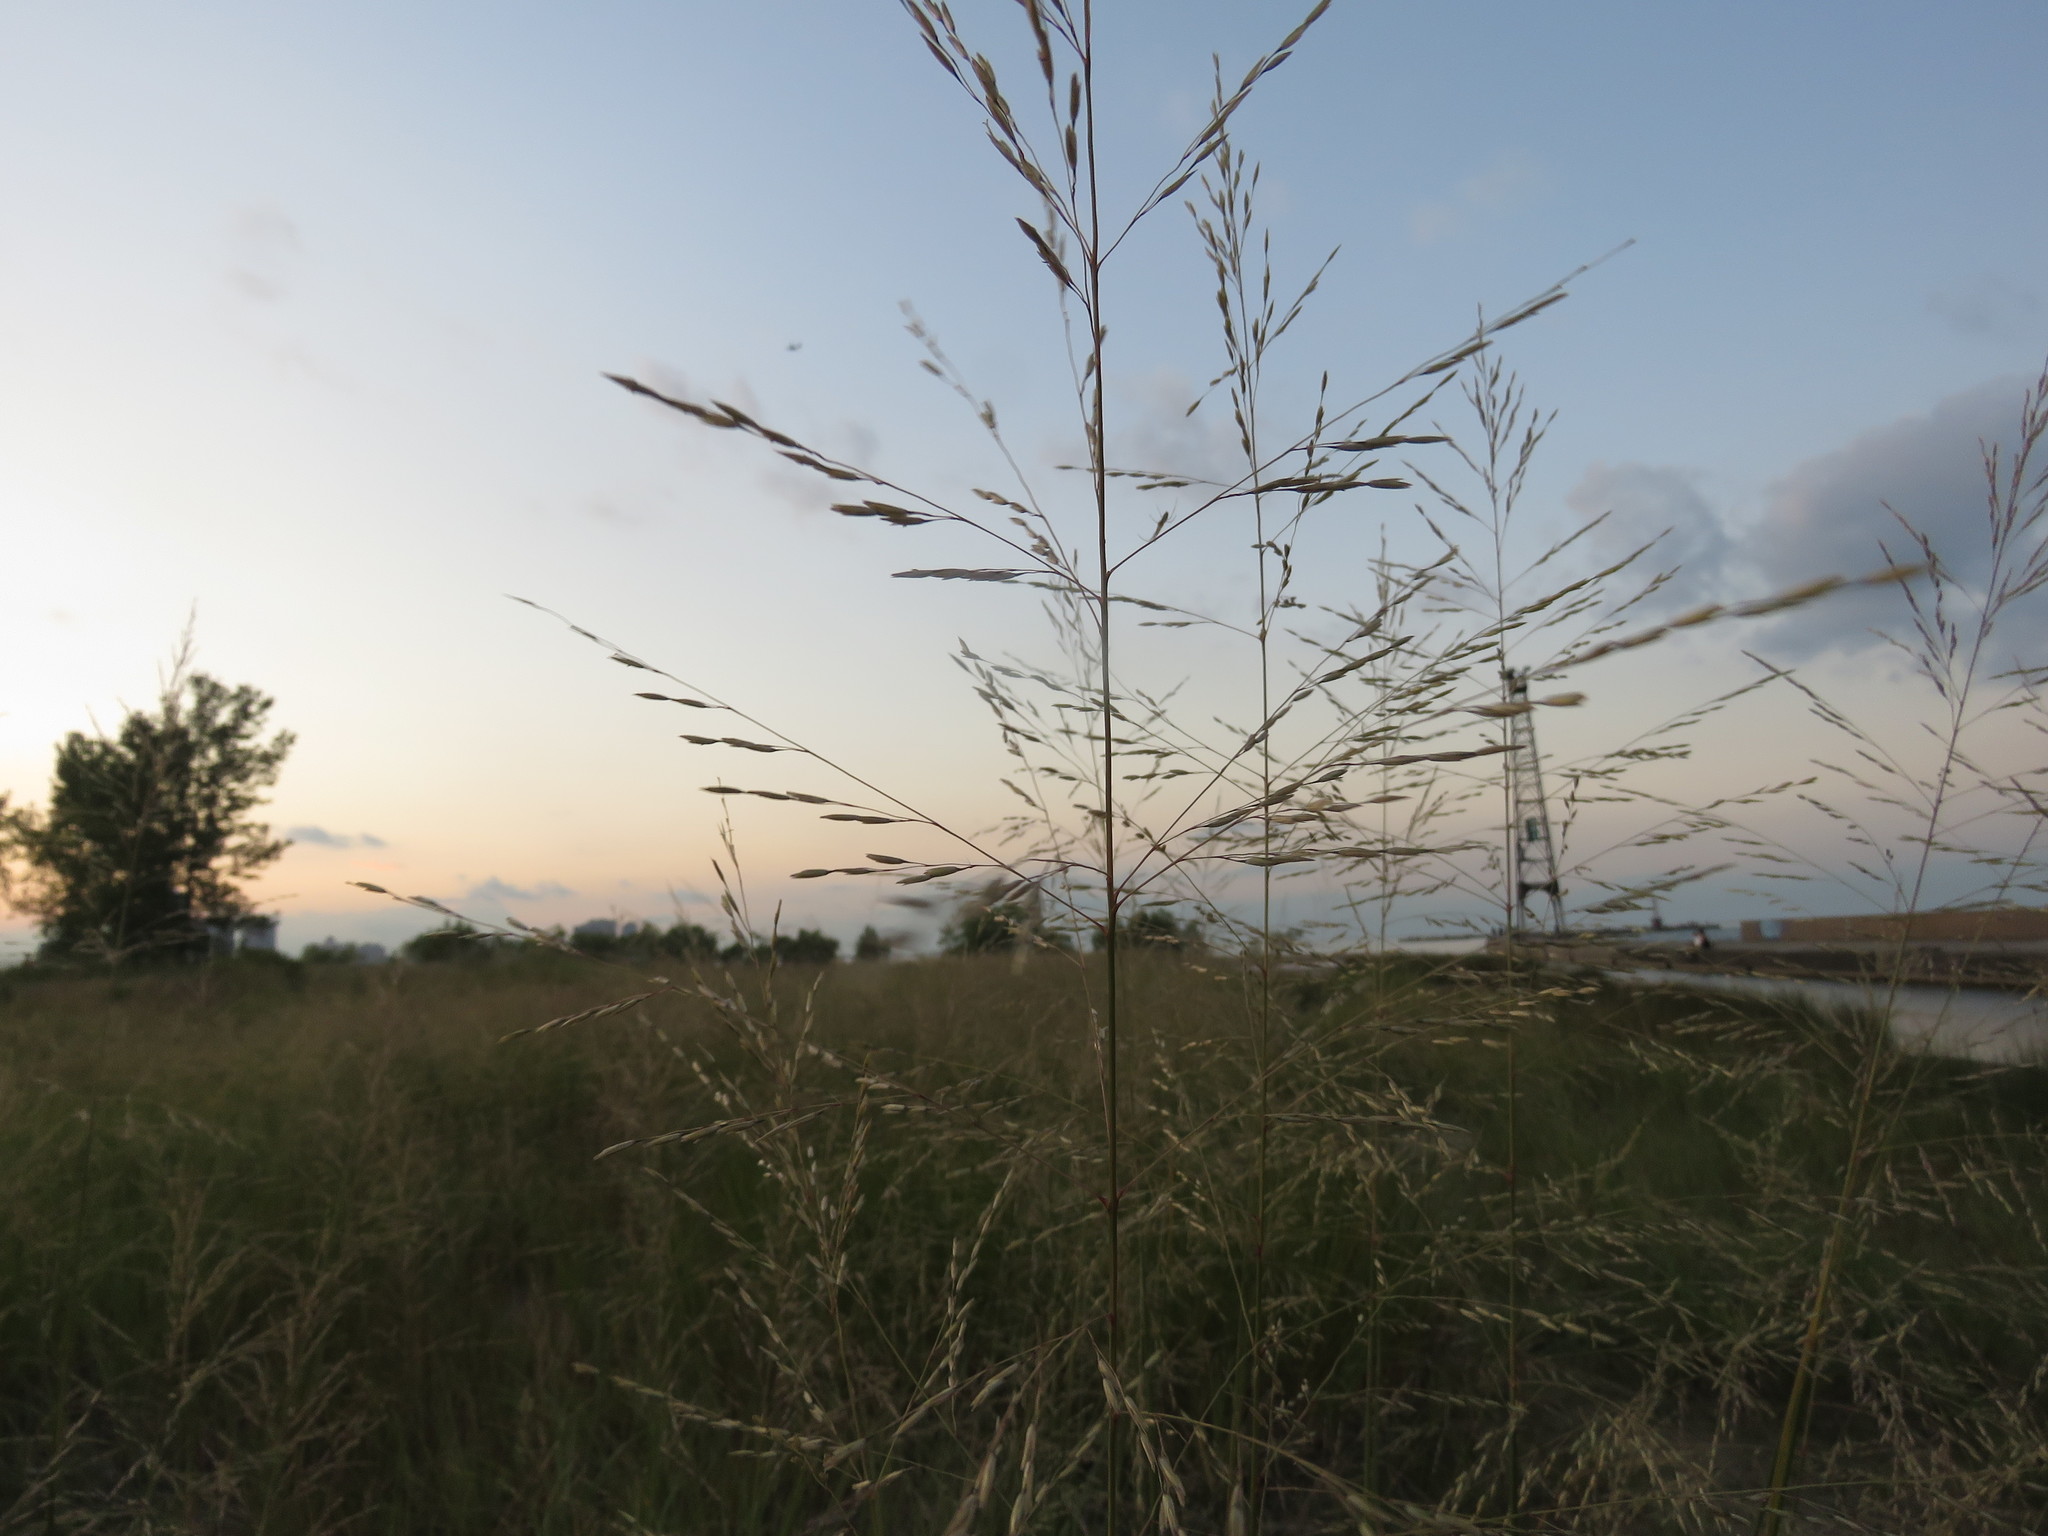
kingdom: Plantae
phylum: Tracheophyta
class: Liliopsida
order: Poales
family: Poaceae
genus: Sporobolus
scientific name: Sporobolus rigidus
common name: Prairie sandreed
